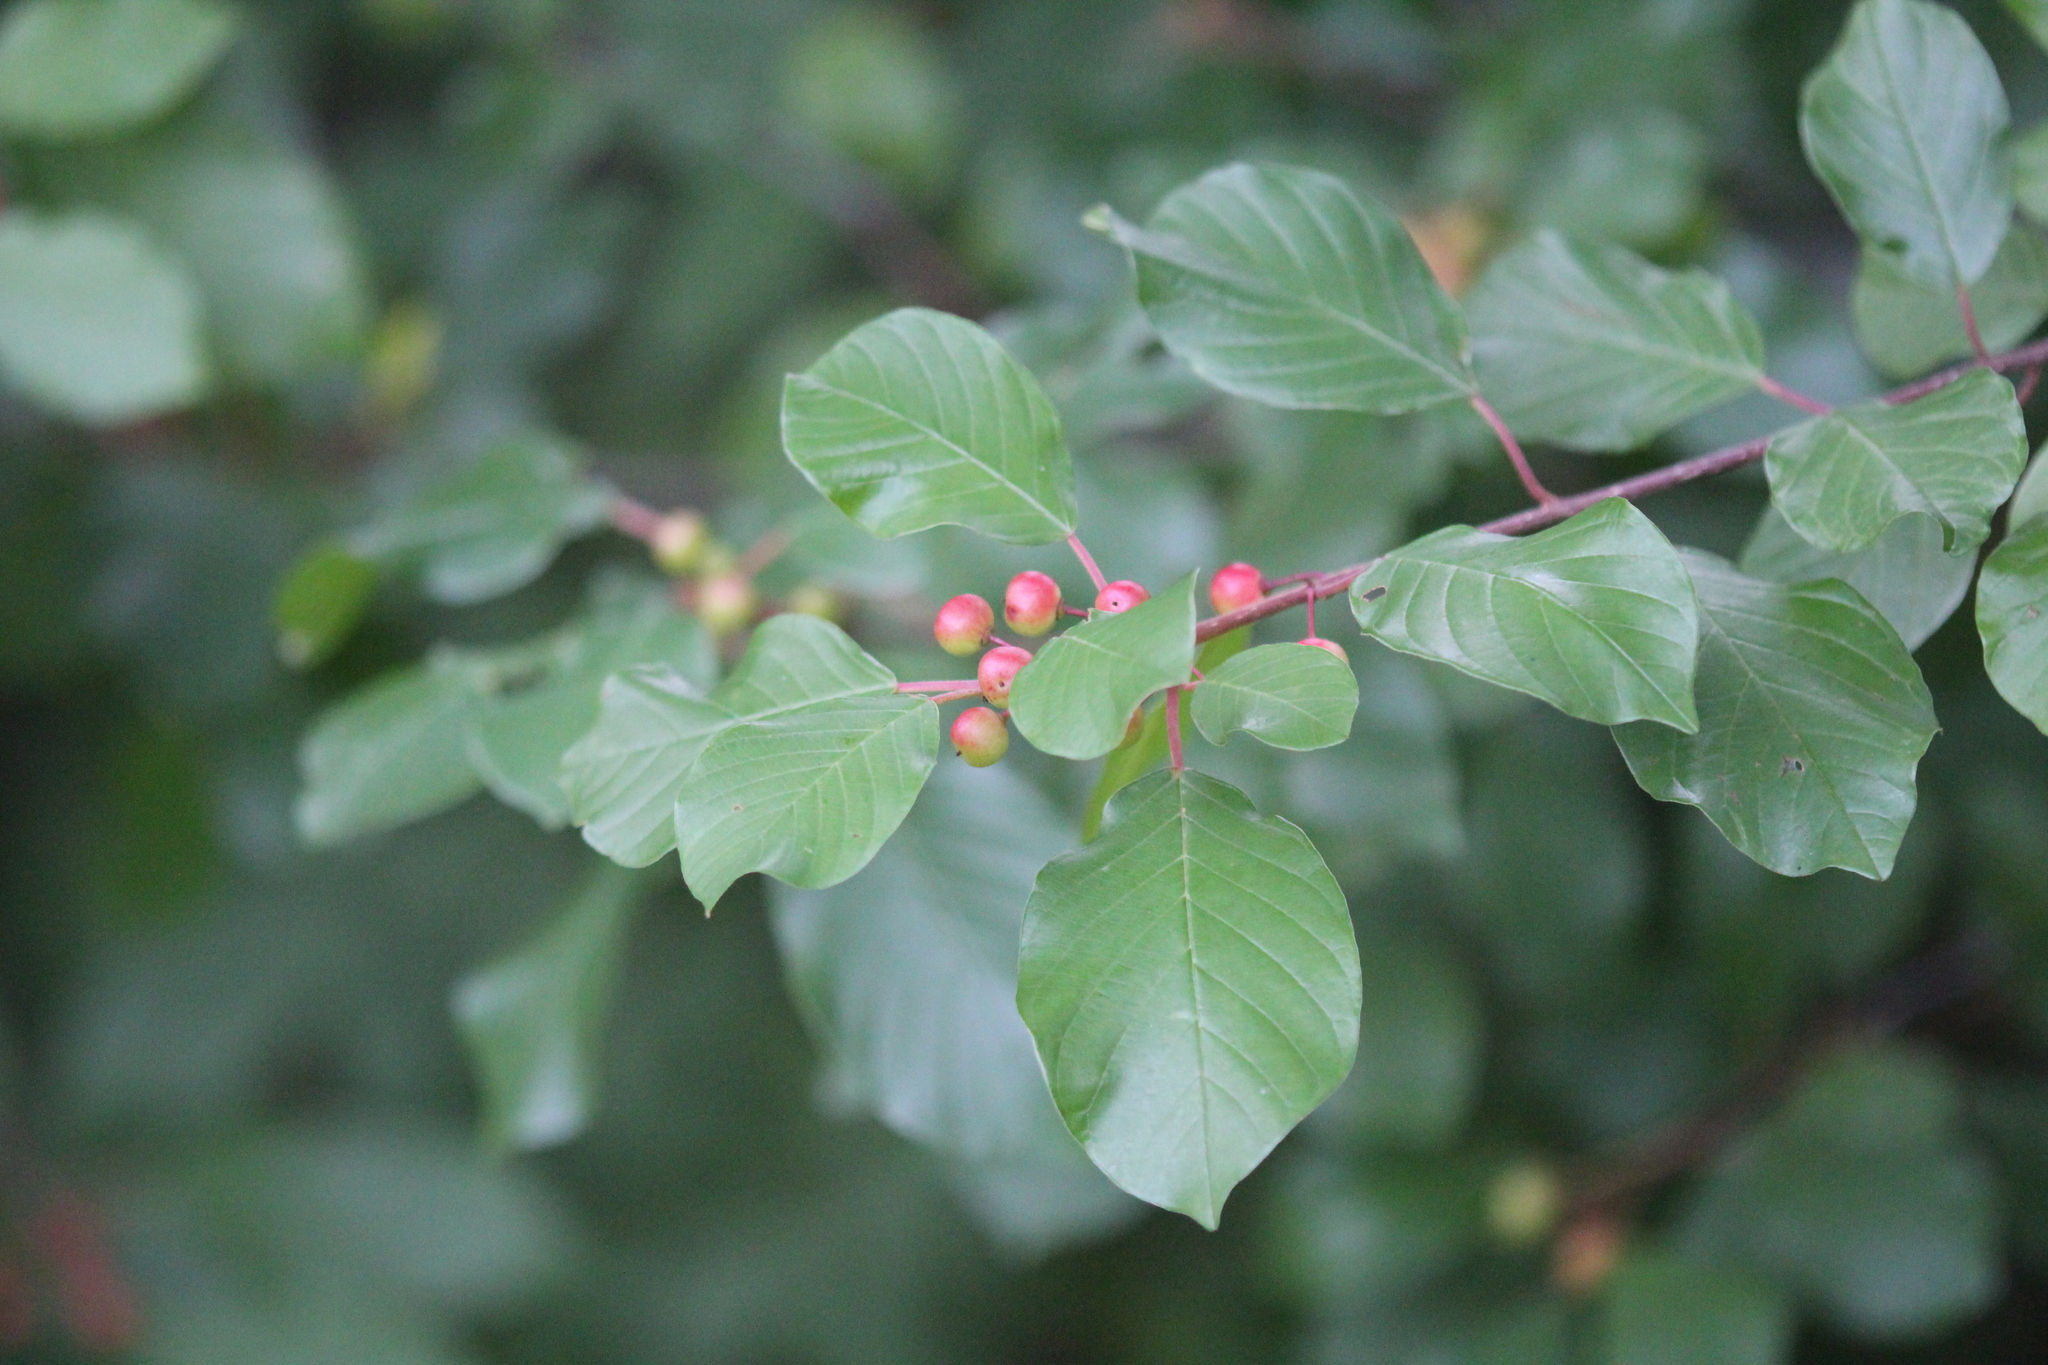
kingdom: Plantae
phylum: Tracheophyta
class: Magnoliopsida
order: Rosales
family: Rhamnaceae
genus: Frangula
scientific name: Frangula alnus
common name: Alder buckthorn
